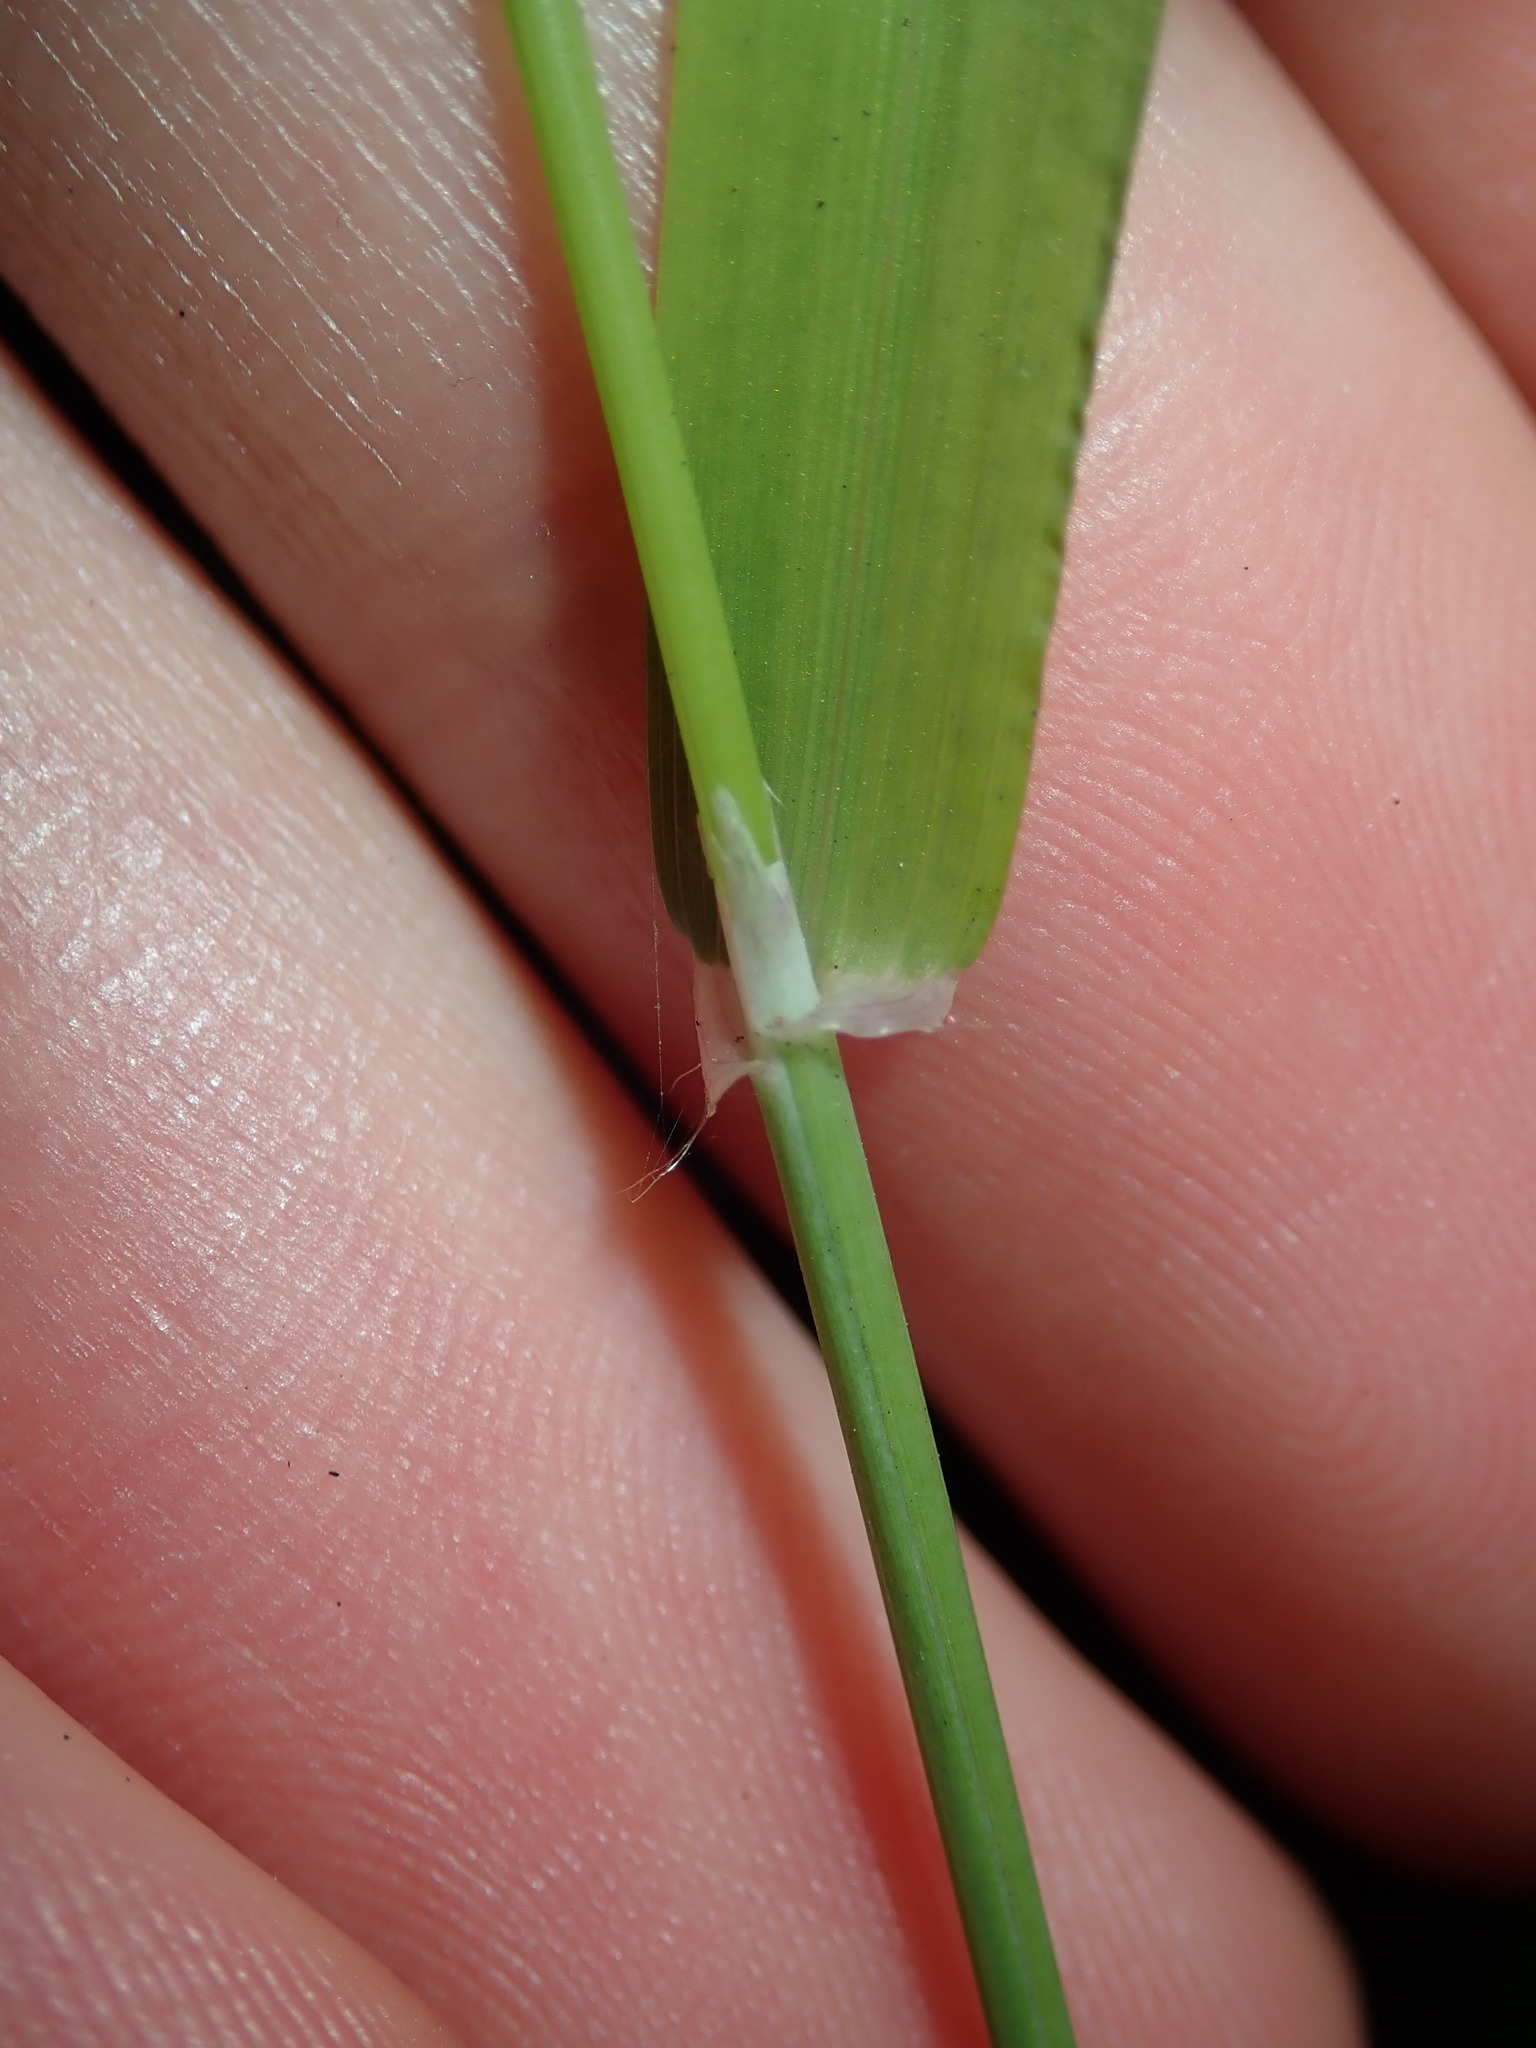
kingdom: Plantae
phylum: Tracheophyta
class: Liliopsida
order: Poales
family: Poaceae
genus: Ehrharta
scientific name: Ehrharta erecta
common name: Panic veldtgrass
